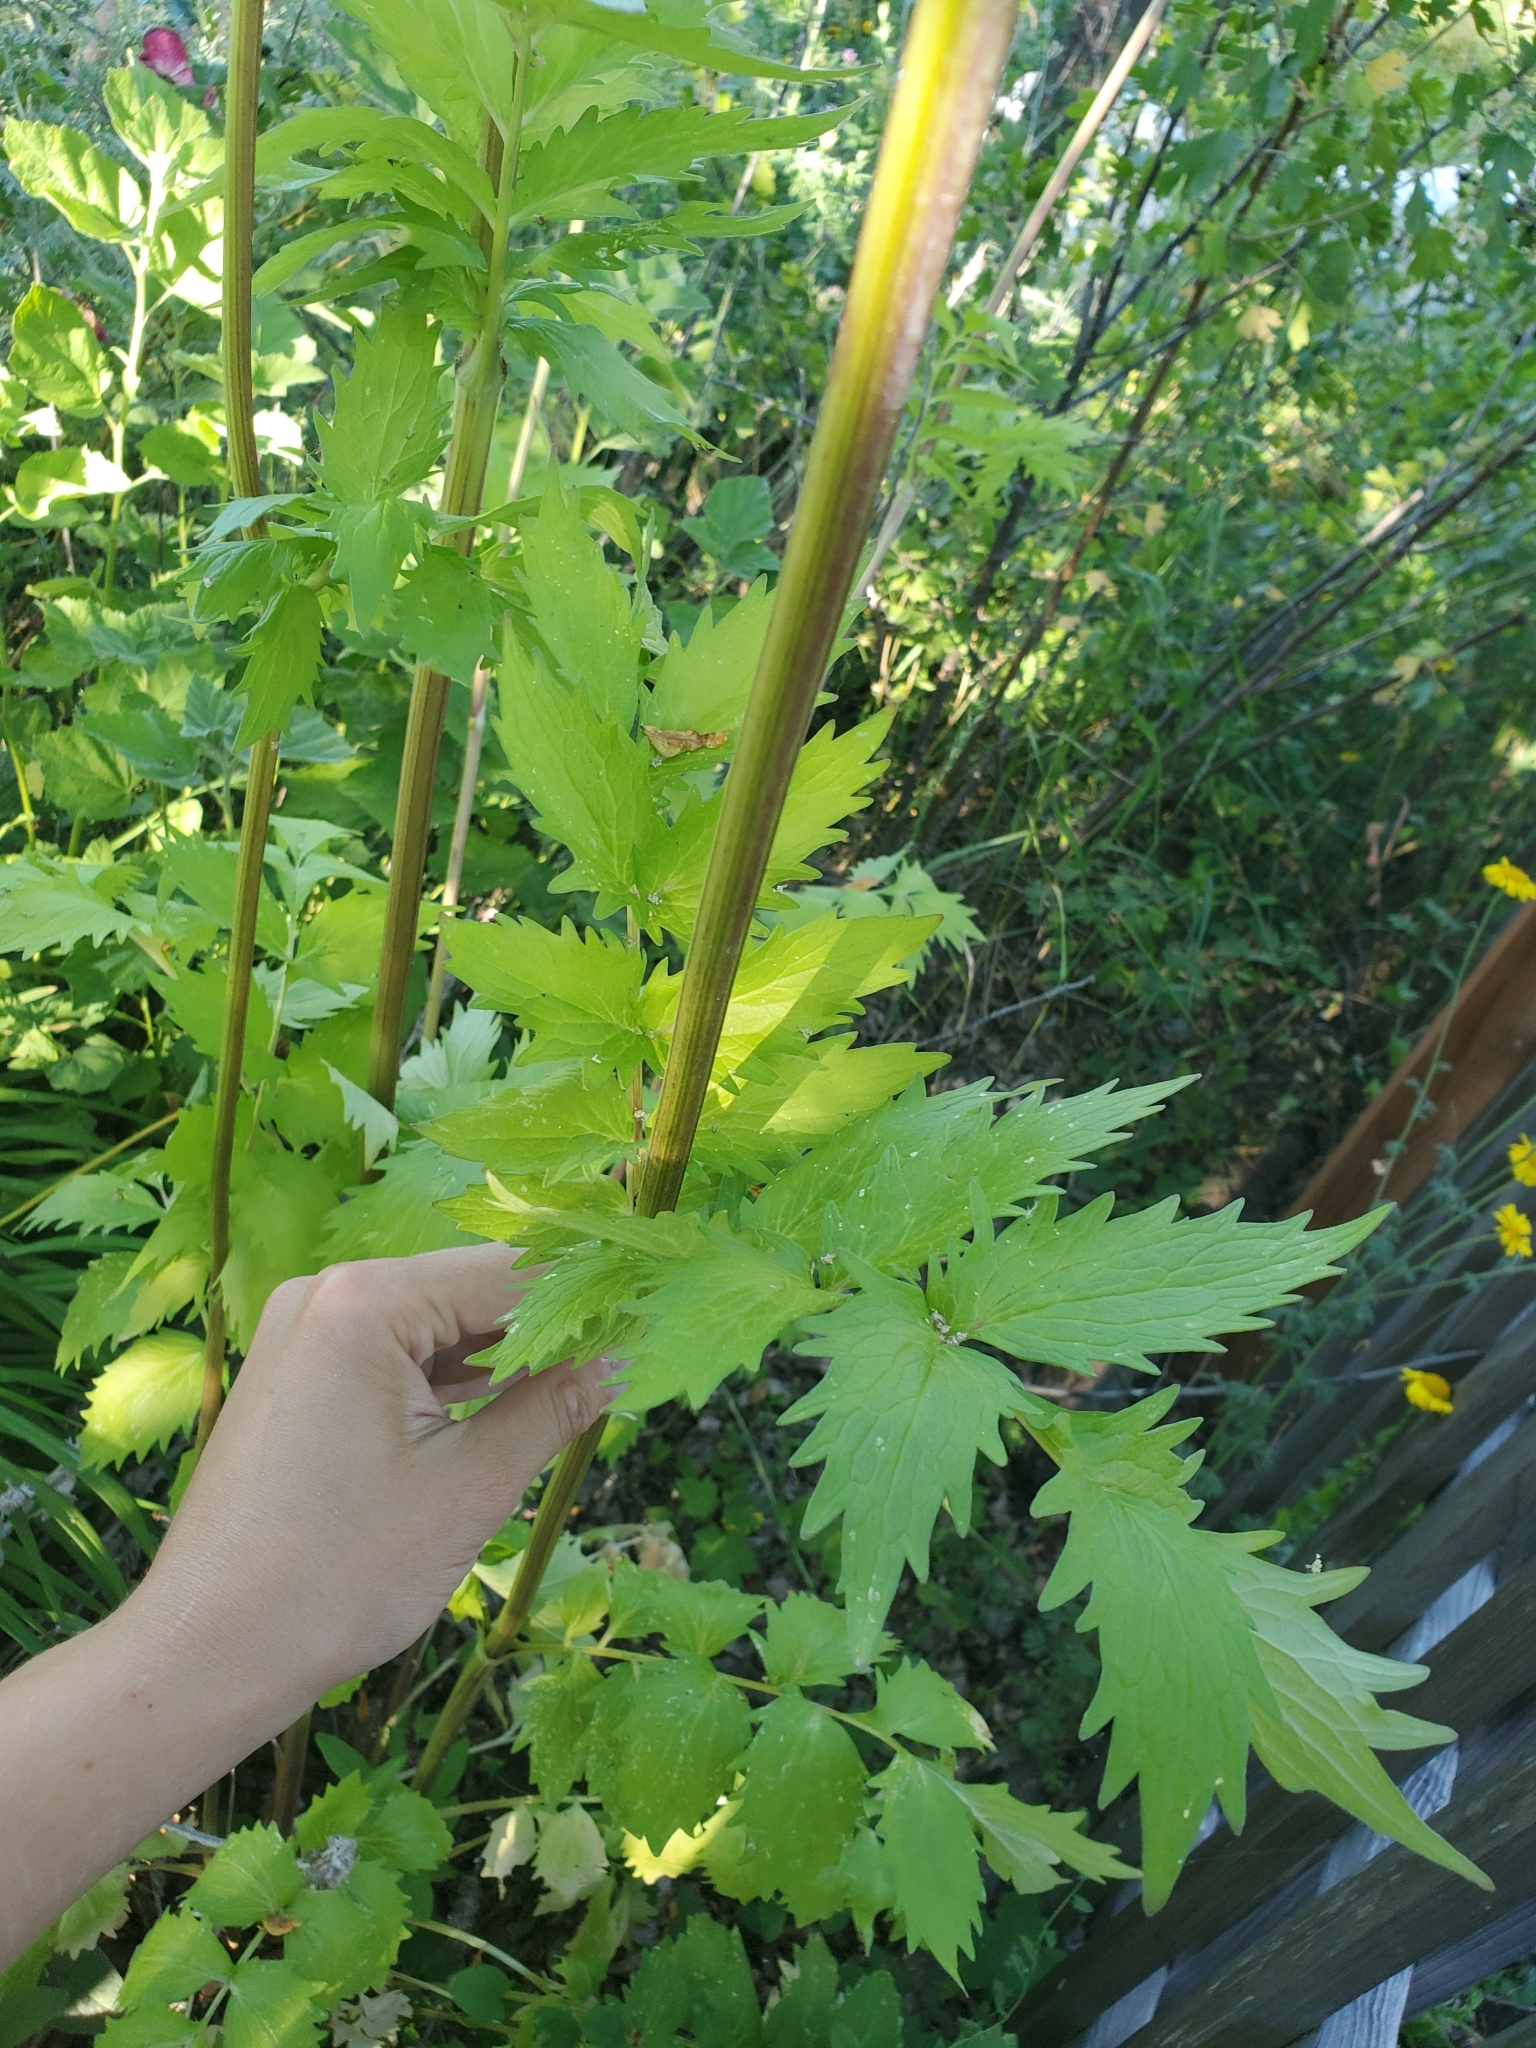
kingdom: Plantae
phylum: Tracheophyta
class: Magnoliopsida
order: Dipsacales
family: Caprifoliaceae
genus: Valeriana
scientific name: Valeriana officinalis
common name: Common valerian
